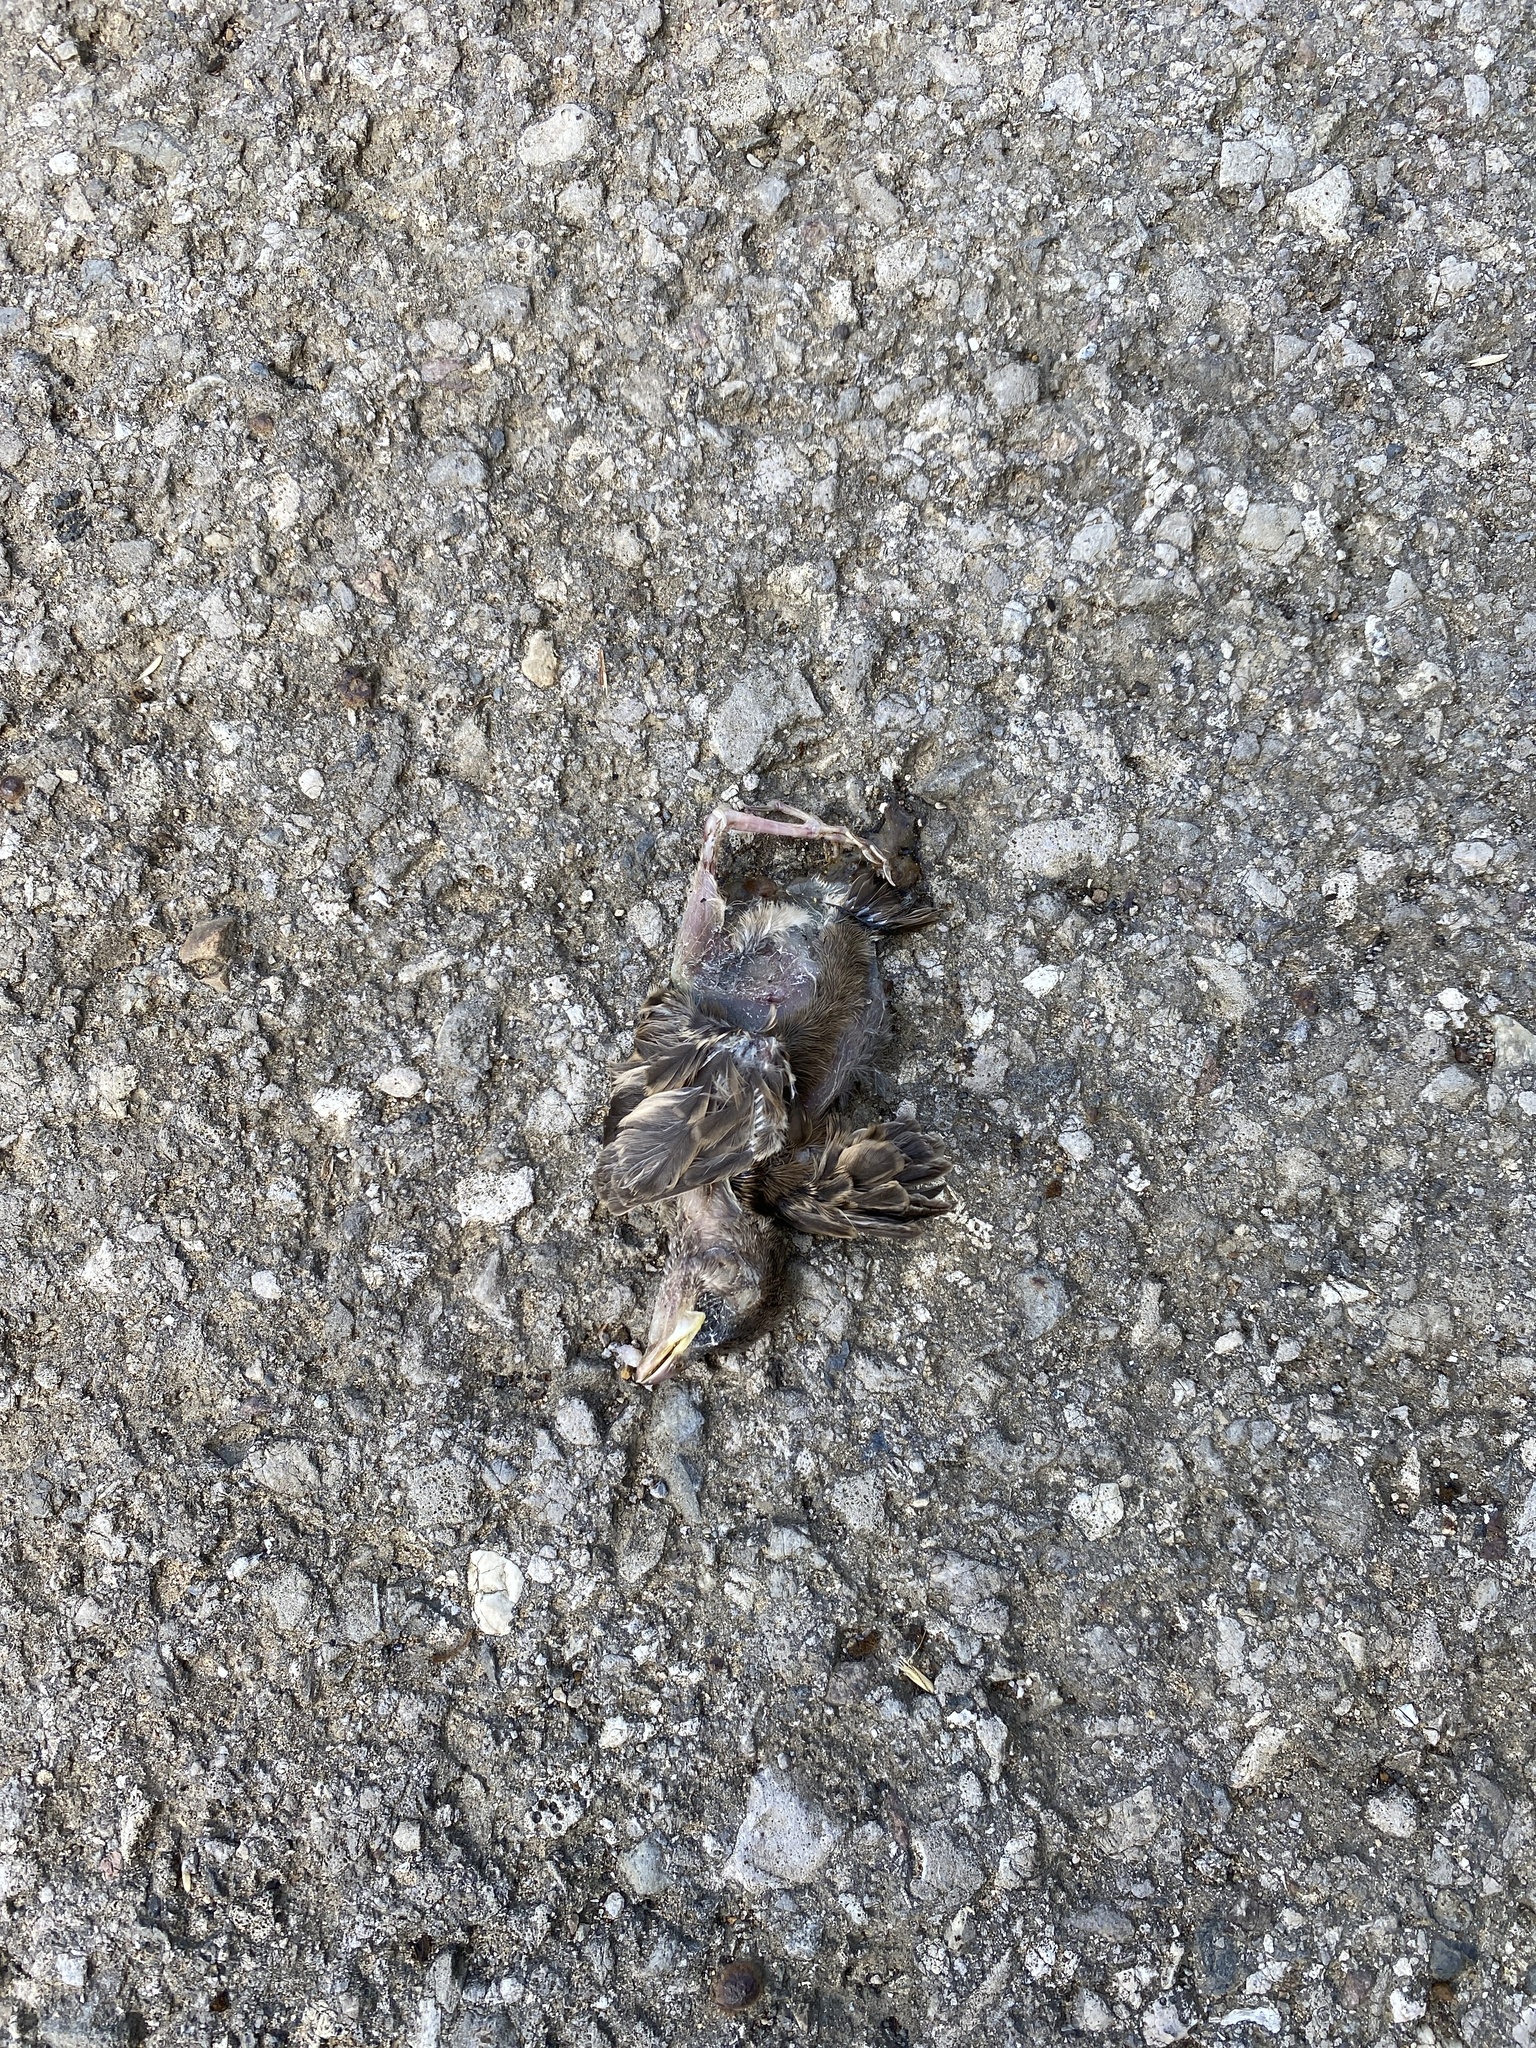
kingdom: Animalia
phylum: Chordata
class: Aves
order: Passeriformes
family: Passeridae
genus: Passer
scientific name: Passer domesticus
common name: House sparrow
